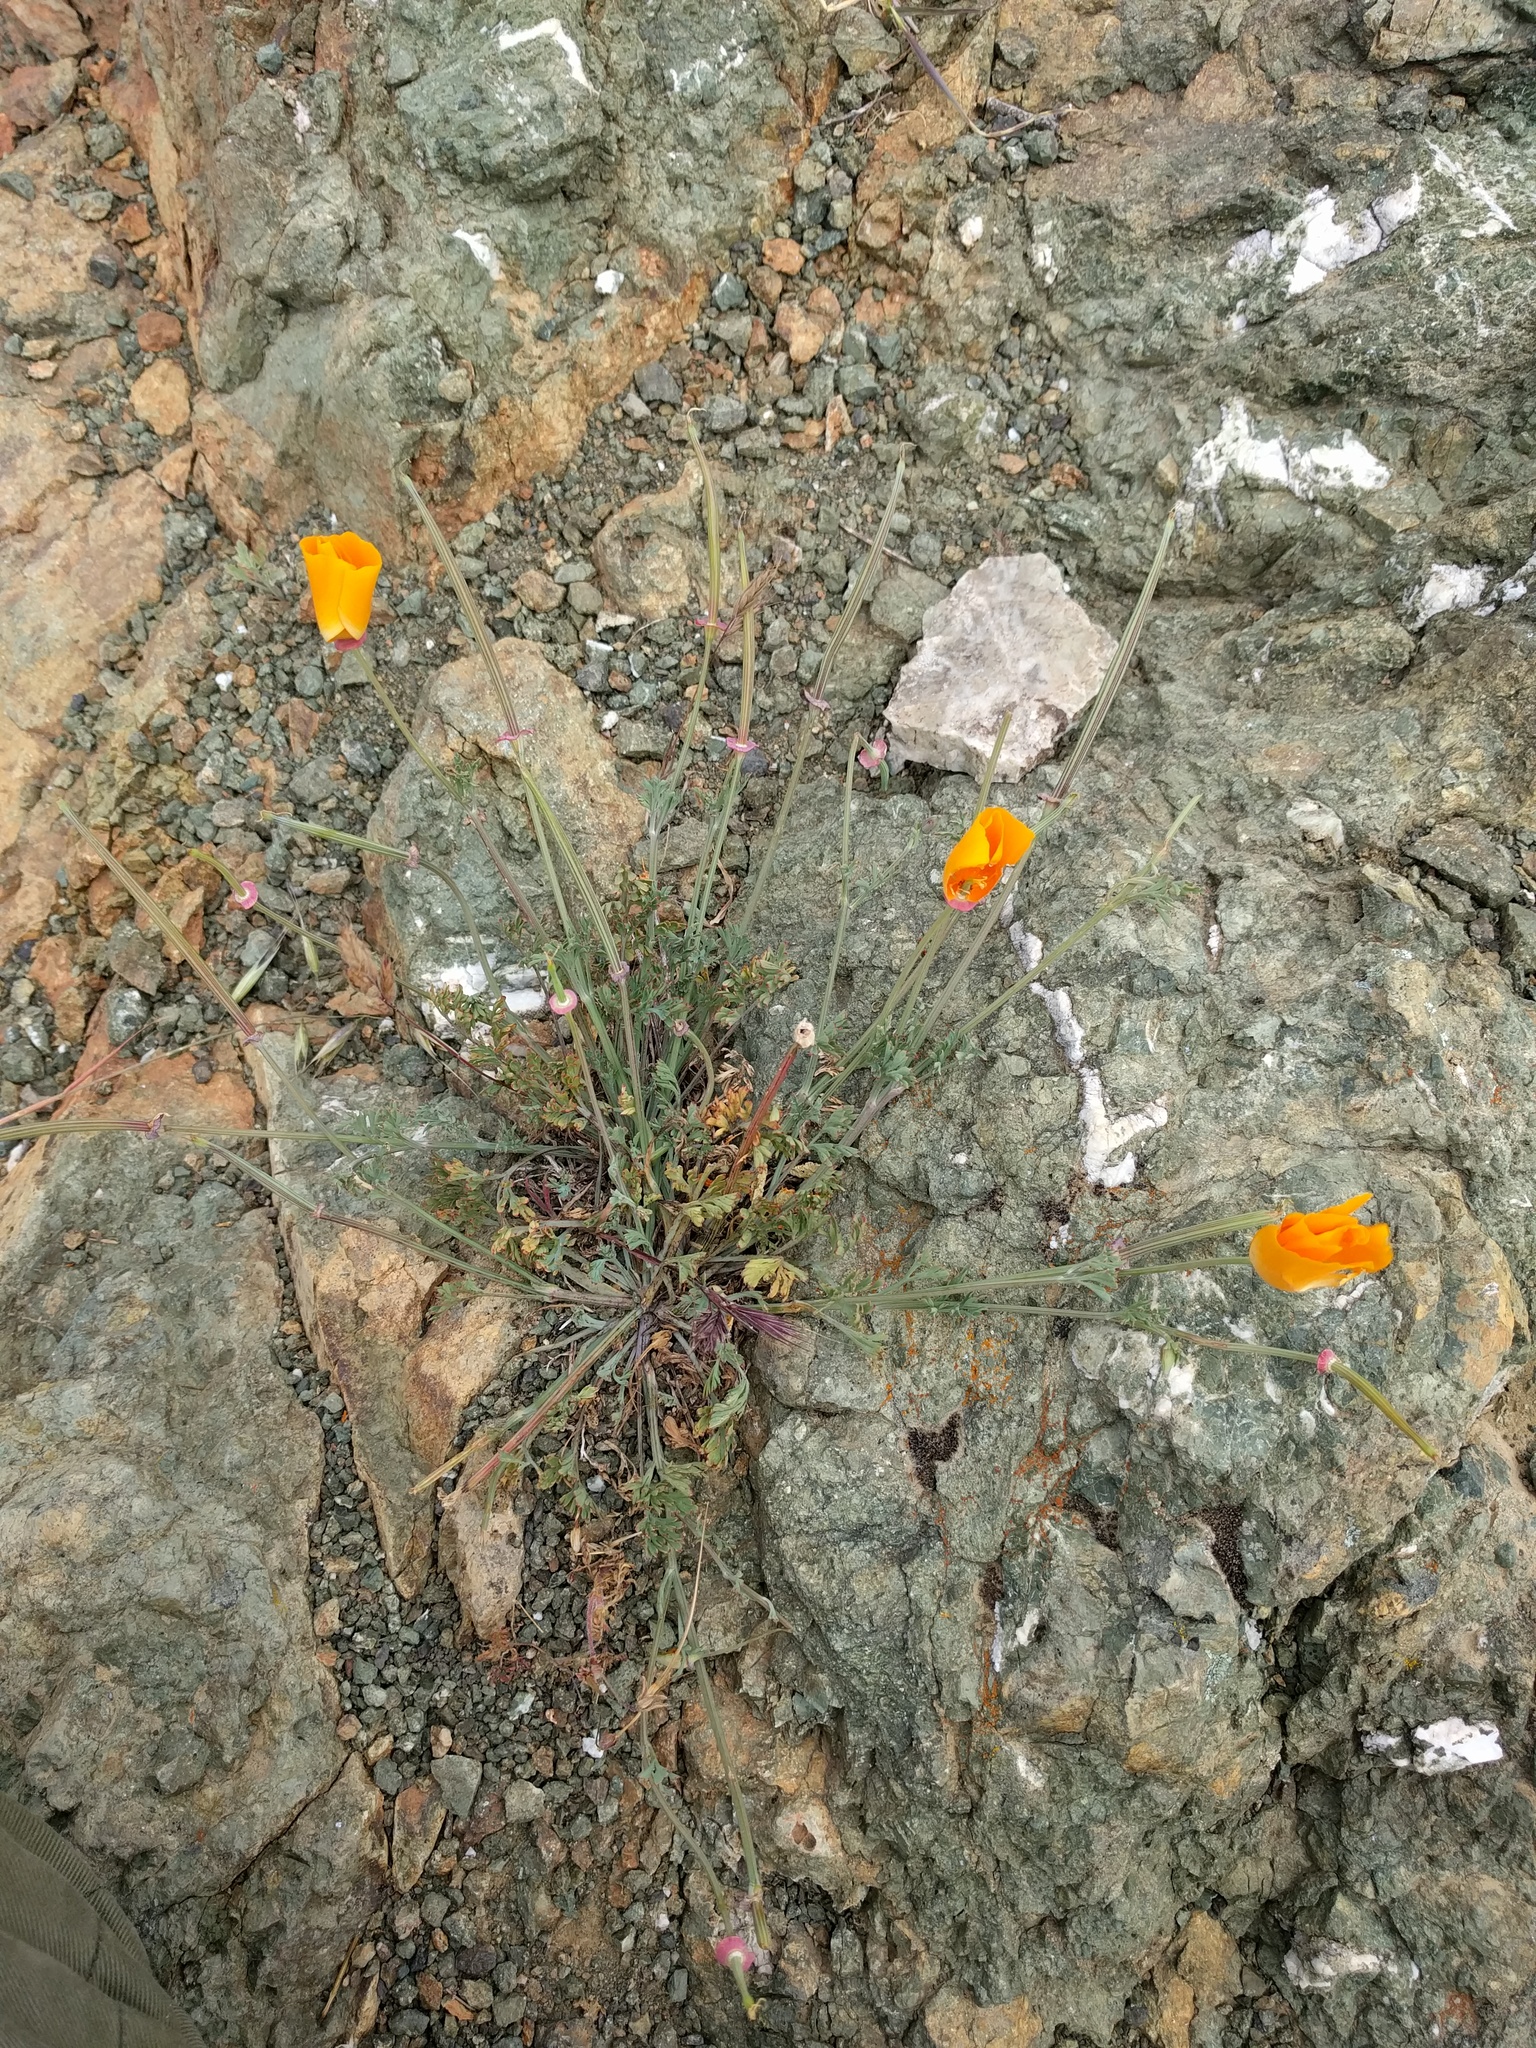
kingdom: Plantae
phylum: Tracheophyta
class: Magnoliopsida
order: Ranunculales
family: Papaveraceae
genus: Eschscholzia
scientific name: Eschscholzia californica
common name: California poppy
